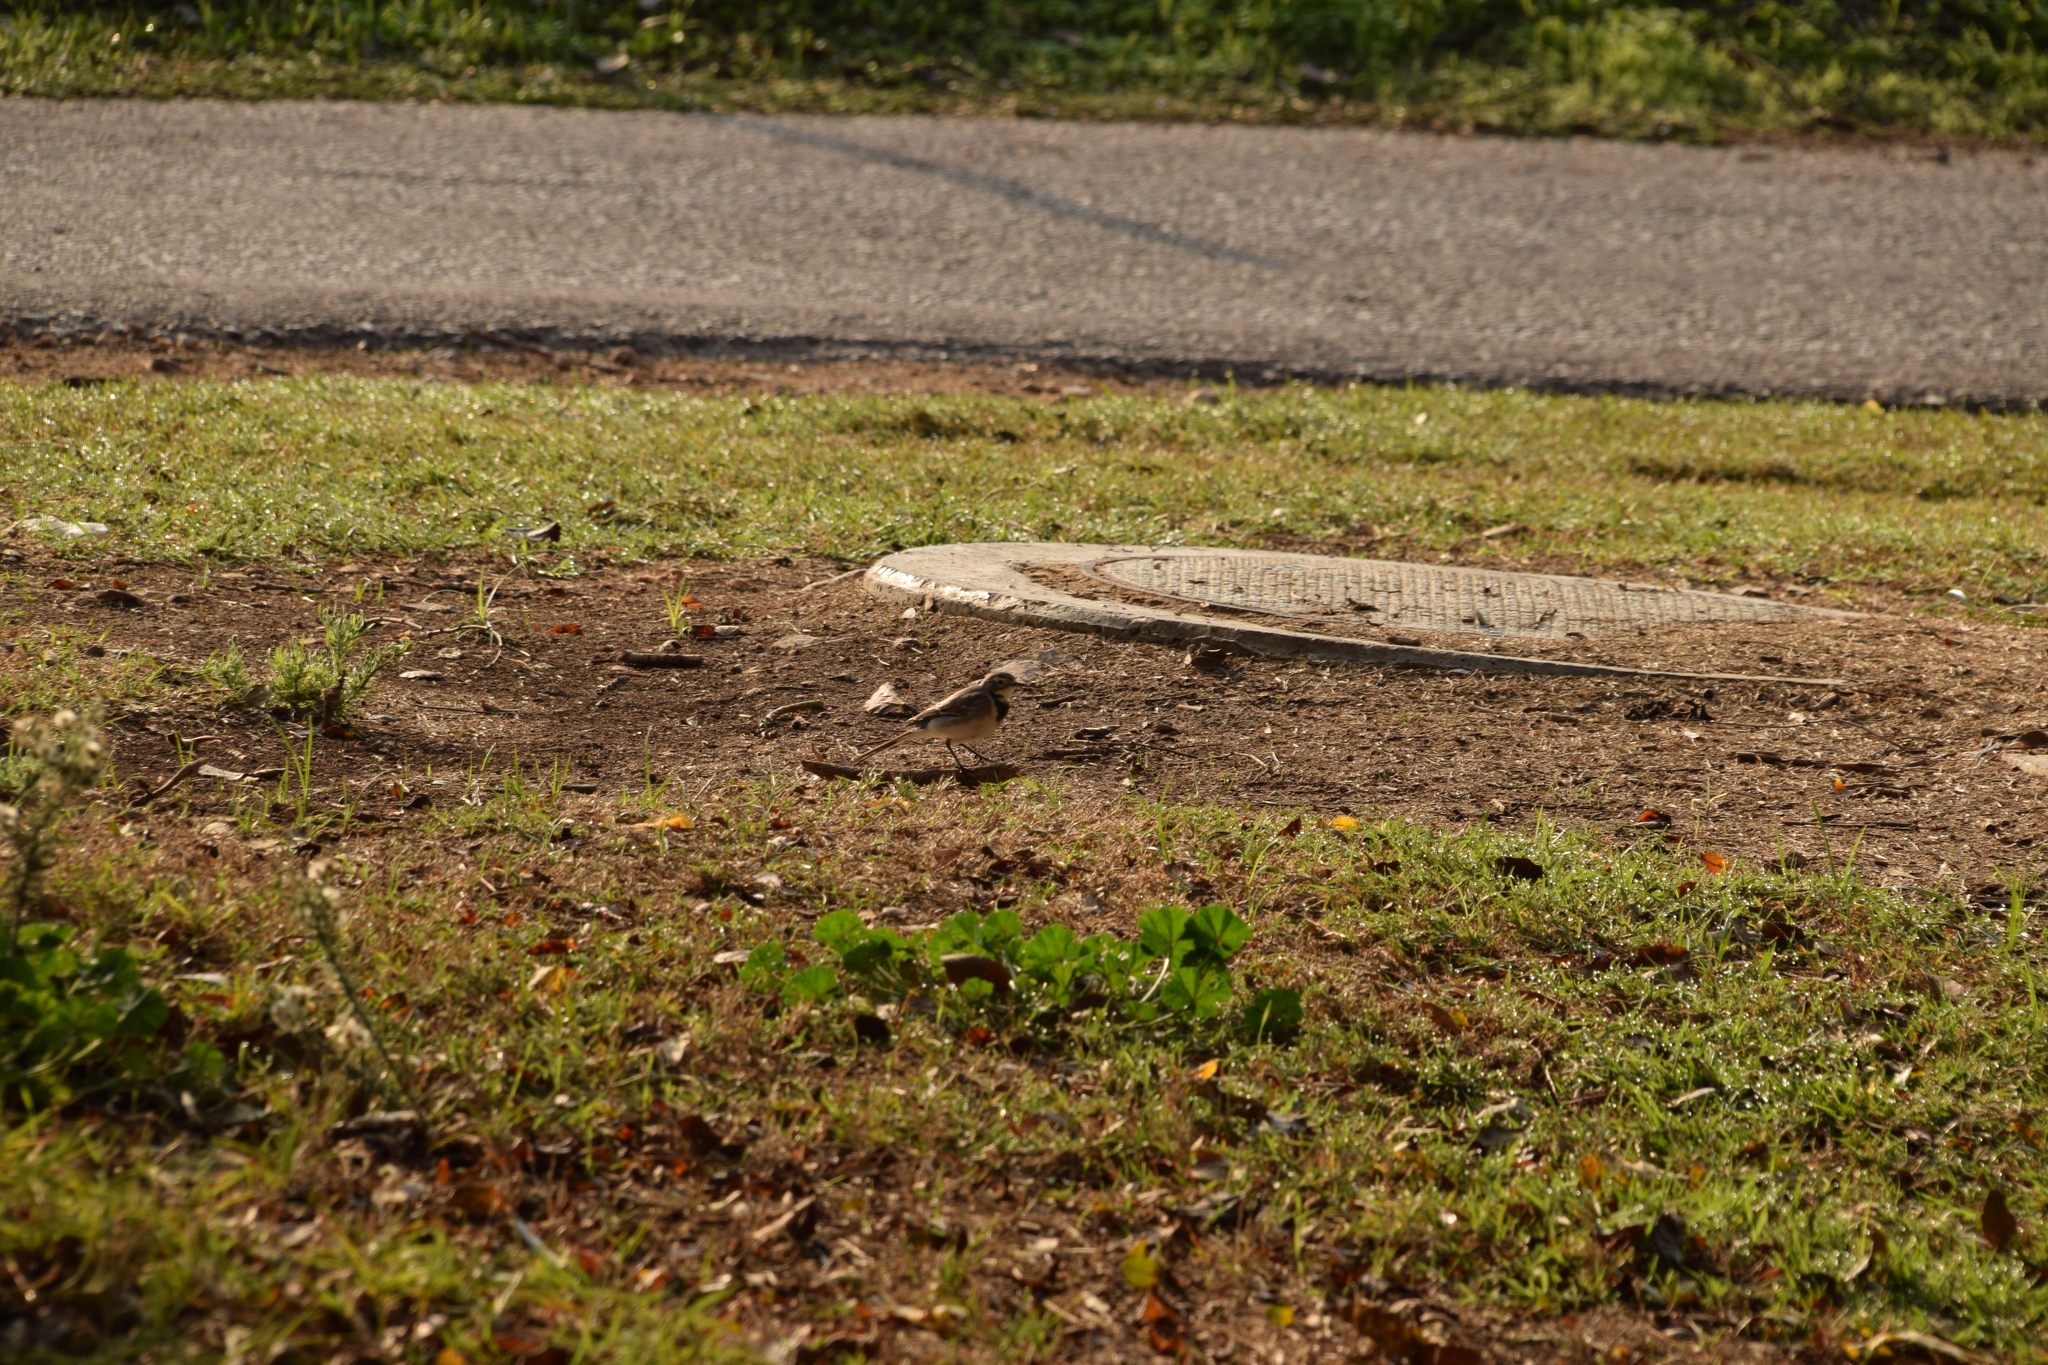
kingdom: Animalia
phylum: Chordata
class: Aves
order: Passeriformes
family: Motacillidae
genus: Motacilla
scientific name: Motacilla alba
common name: White wagtail
